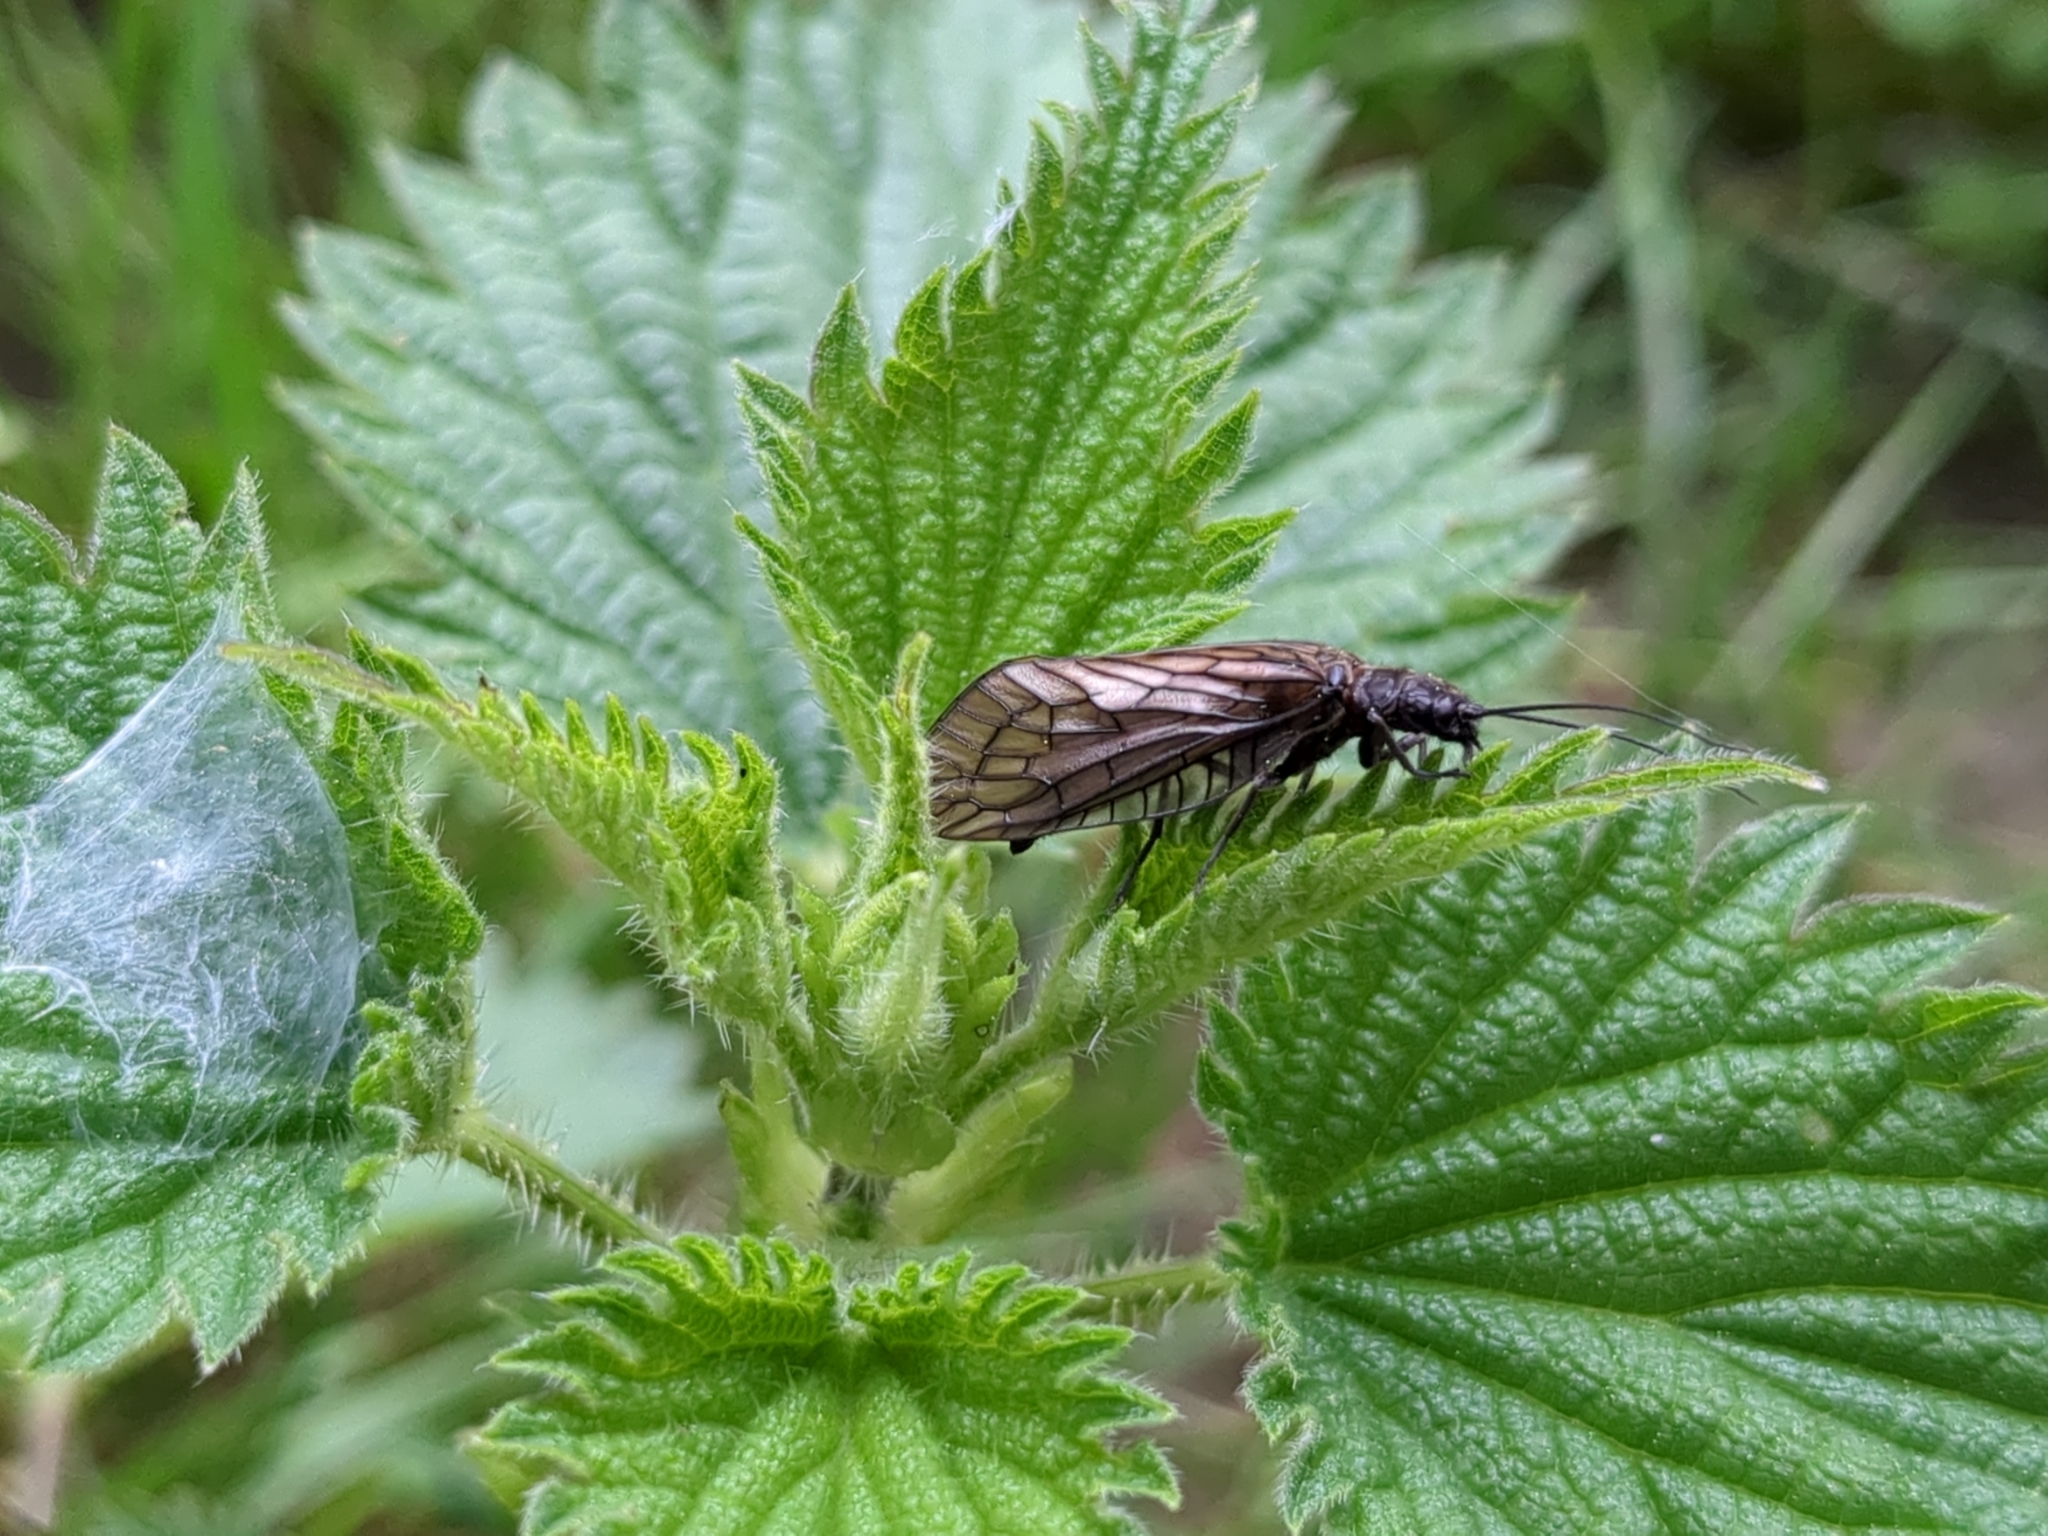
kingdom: Animalia
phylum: Arthropoda
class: Insecta
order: Megaloptera
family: Sialidae
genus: Sialis
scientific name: Sialis
